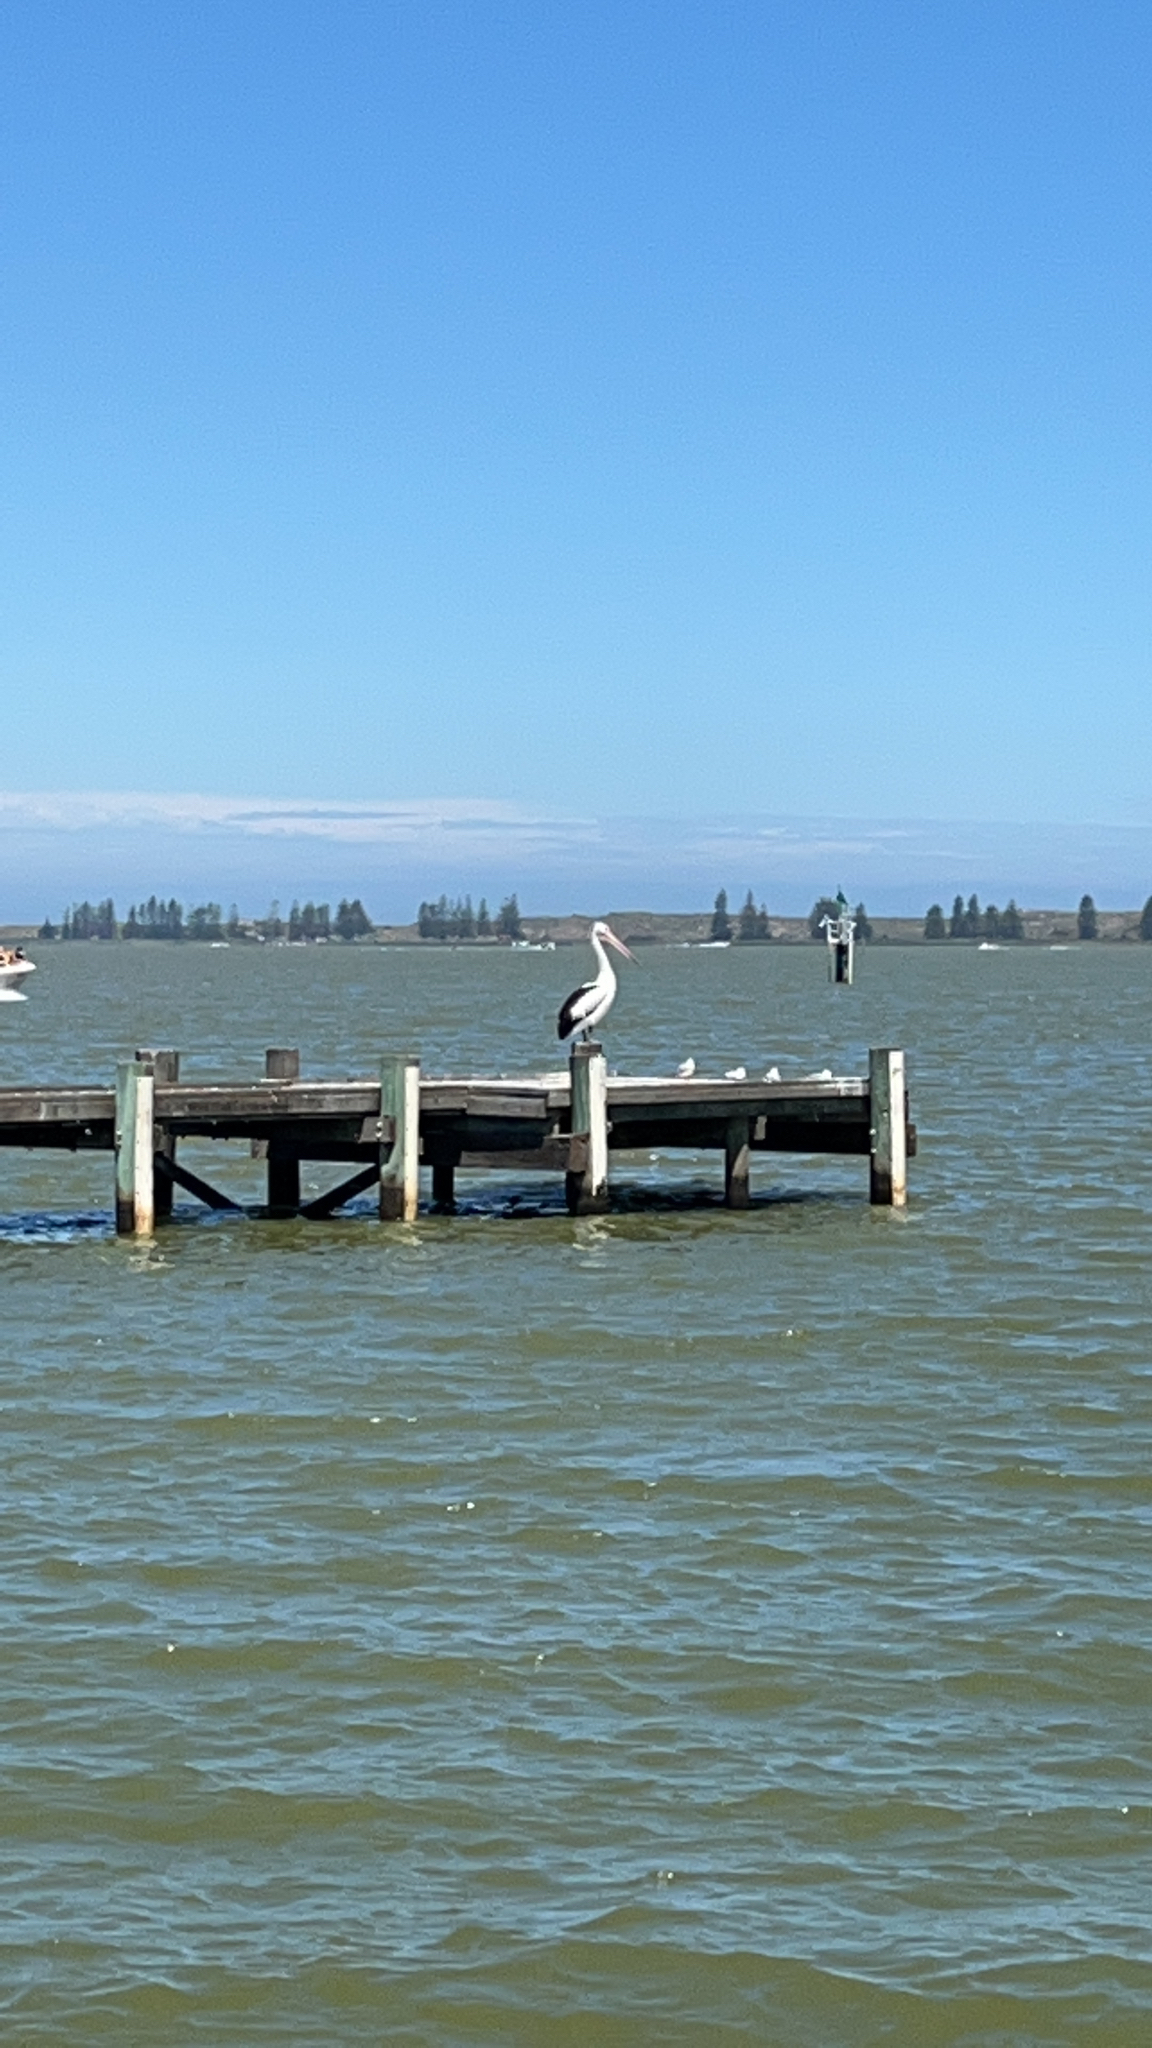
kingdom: Animalia
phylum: Chordata
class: Aves
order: Pelecaniformes
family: Pelecanidae
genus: Pelecanus
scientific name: Pelecanus conspicillatus
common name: Australian pelican
